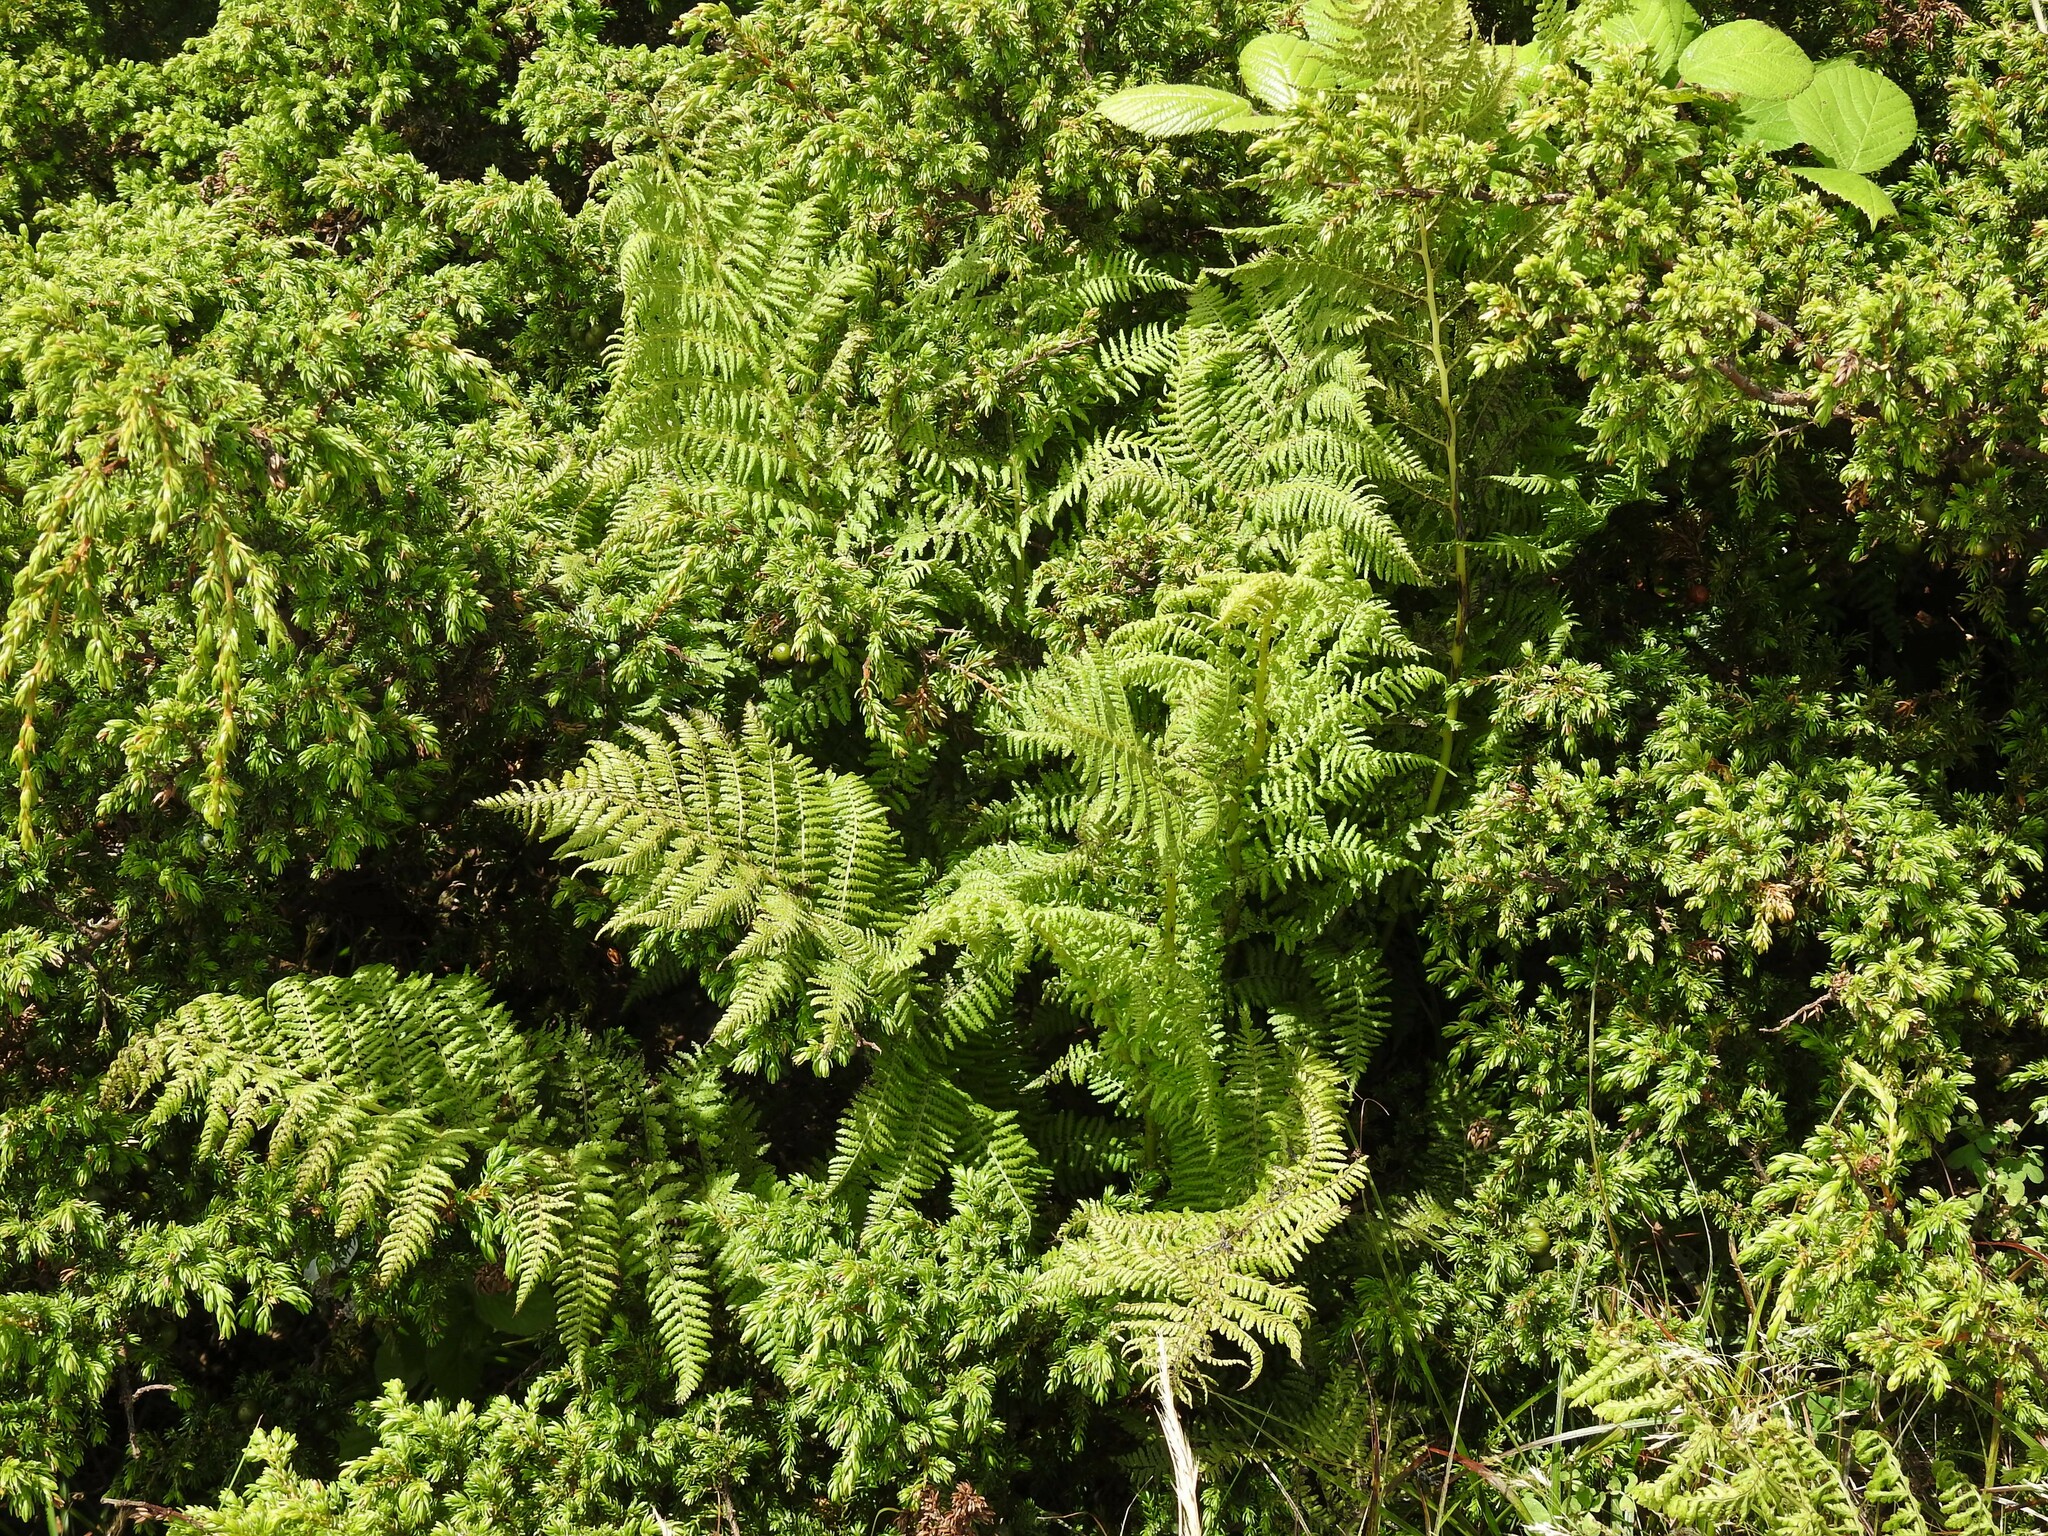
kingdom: Plantae
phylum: Tracheophyta
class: Polypodiopsida
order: Polypodiales
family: Athyriaceae
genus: Athyrium
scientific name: Athyrium filix-femina
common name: Lady fern
